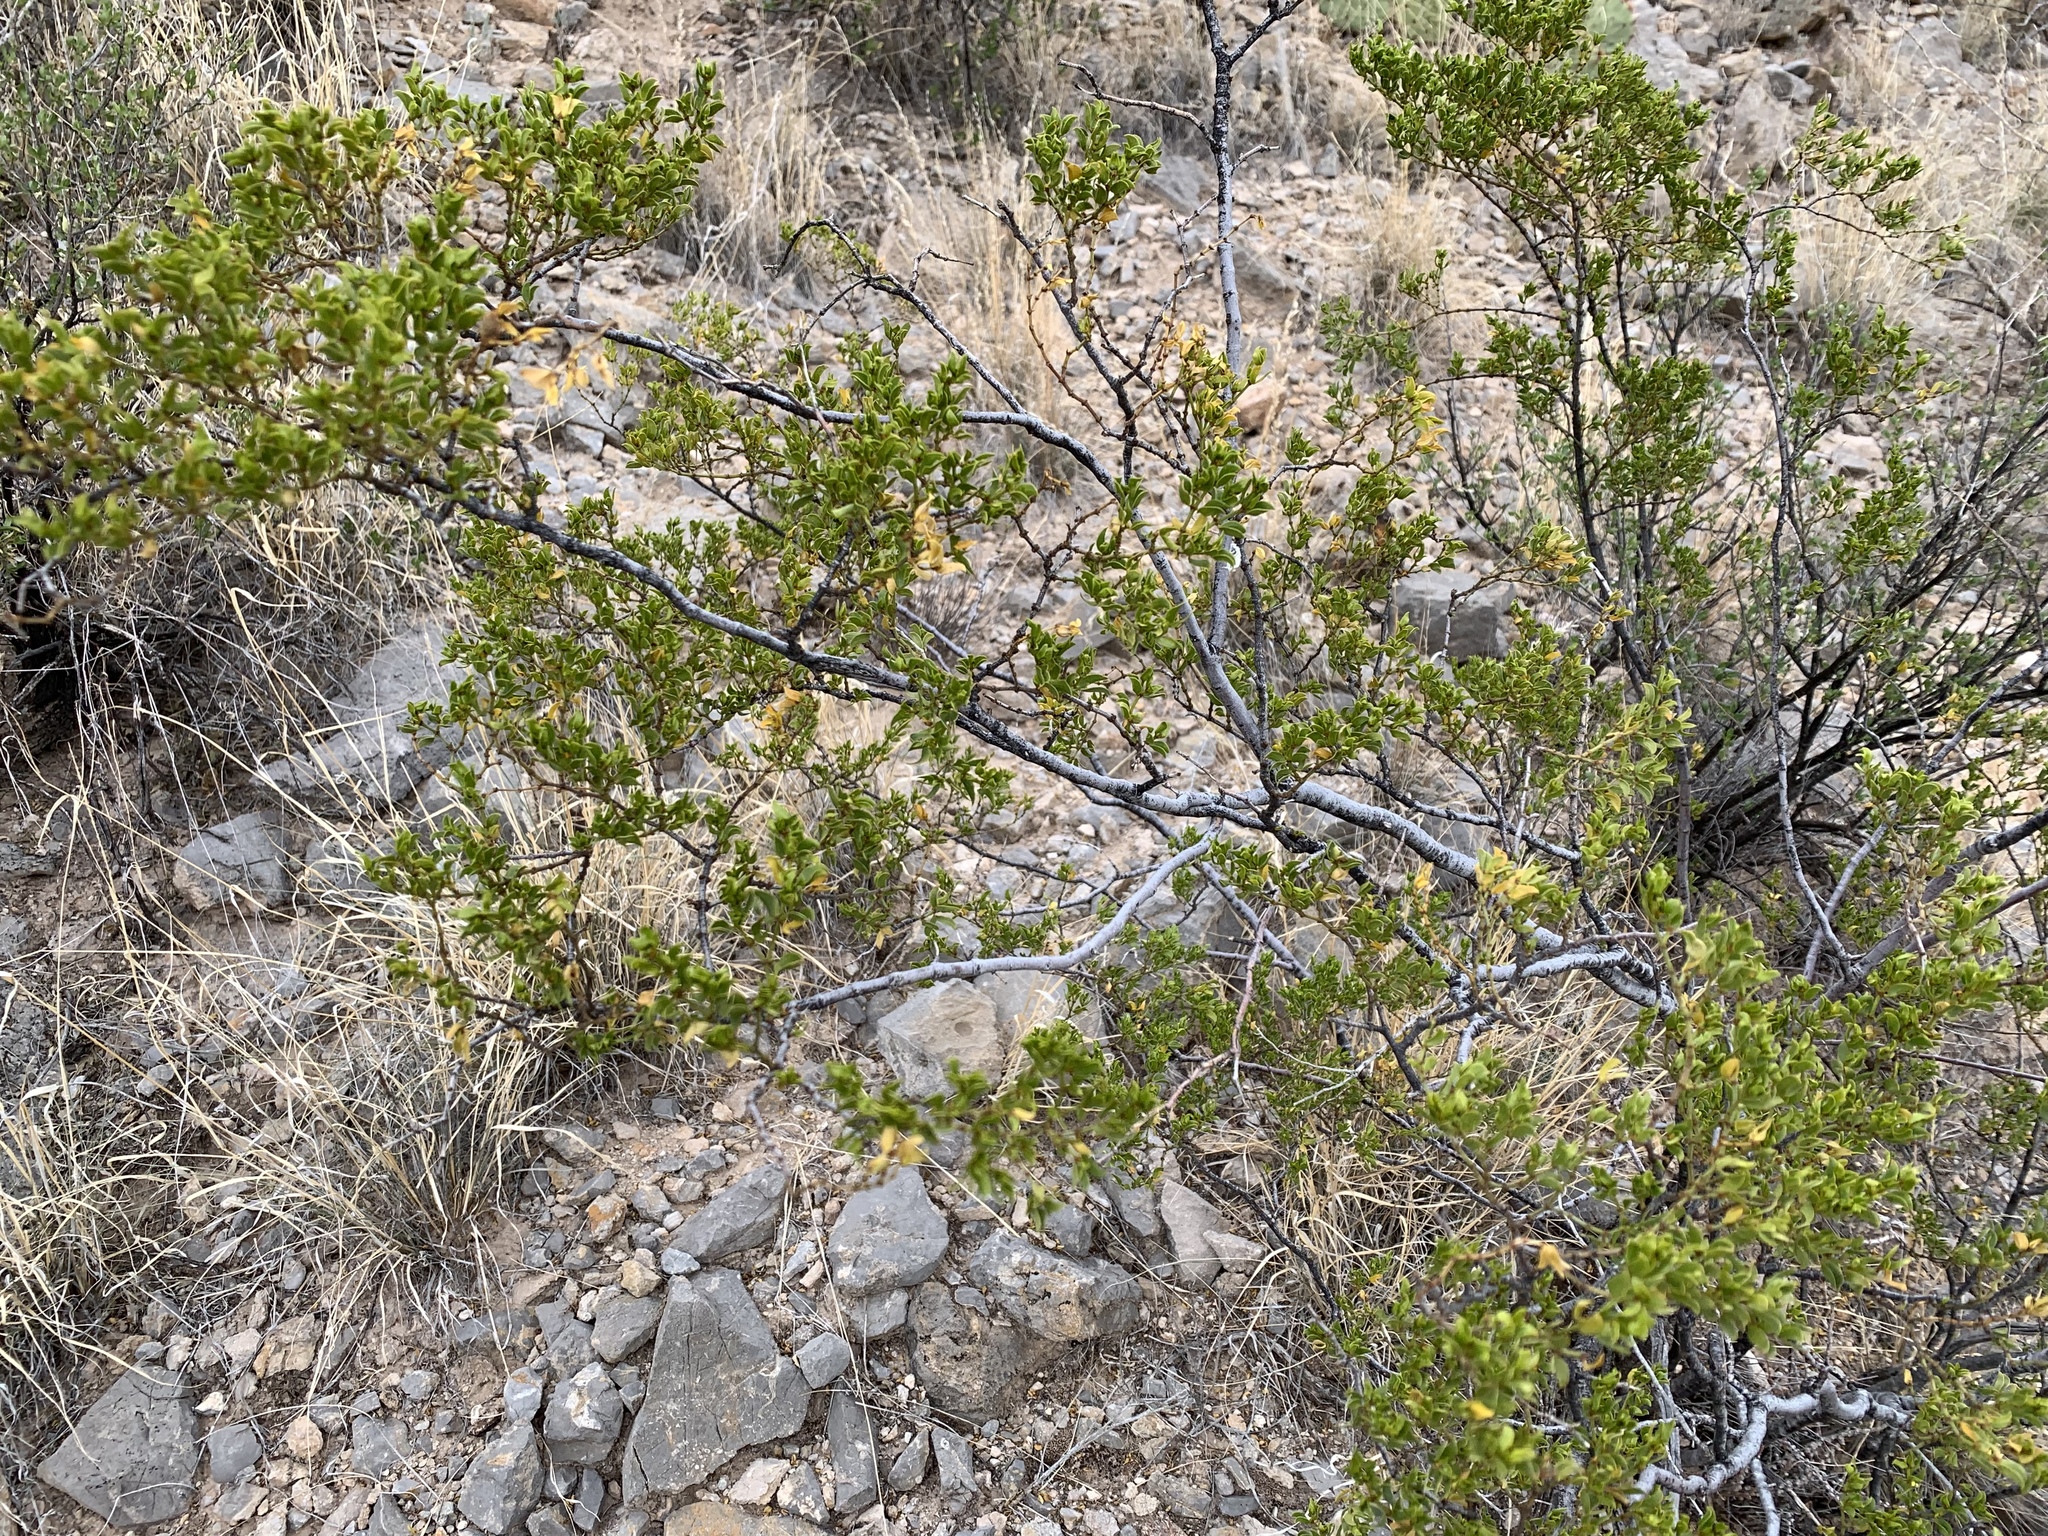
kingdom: Plantae
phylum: Tracheophyta
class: Magnoliopsida
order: Zygophyllales
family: Zygophyllaceae
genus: Larrea
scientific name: Larrea tridentata
